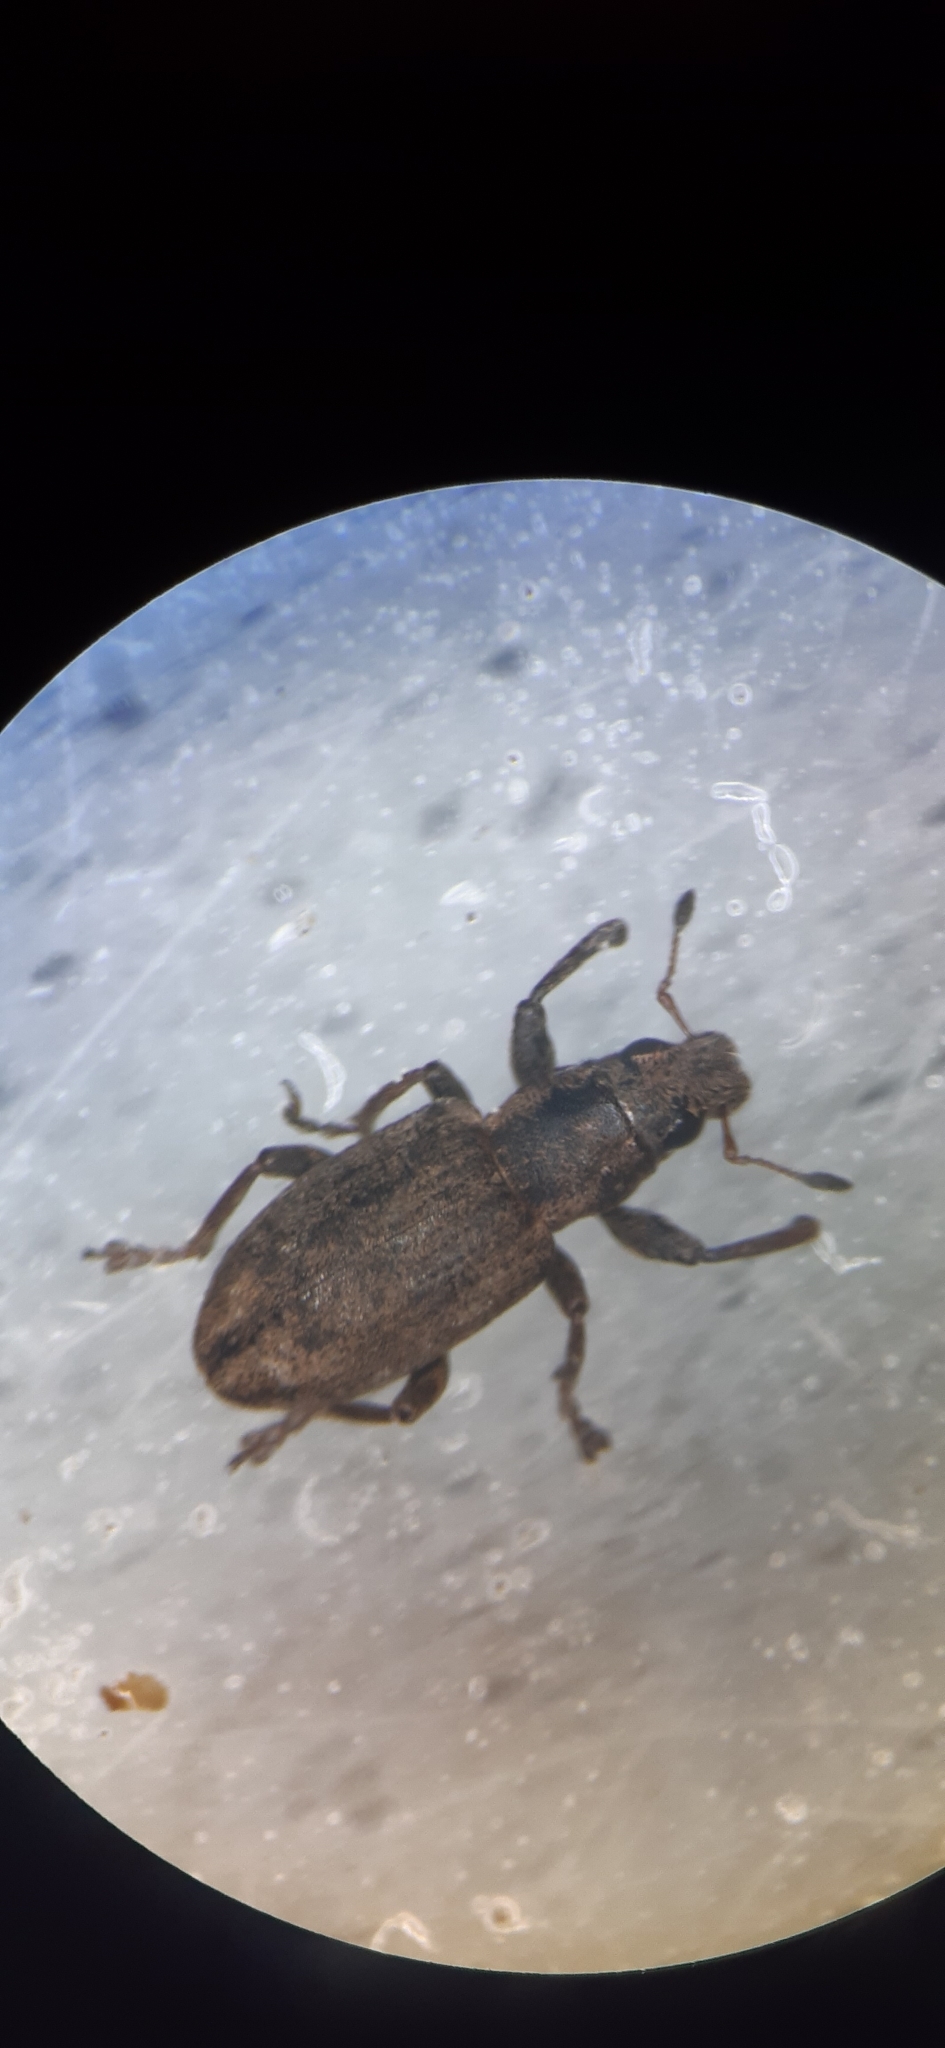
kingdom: Animalia
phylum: Arthropoda
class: Insecta
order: Coleoptera
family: Curculionidae
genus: Sitona
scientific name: Sitona obsoletus
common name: Weevil
